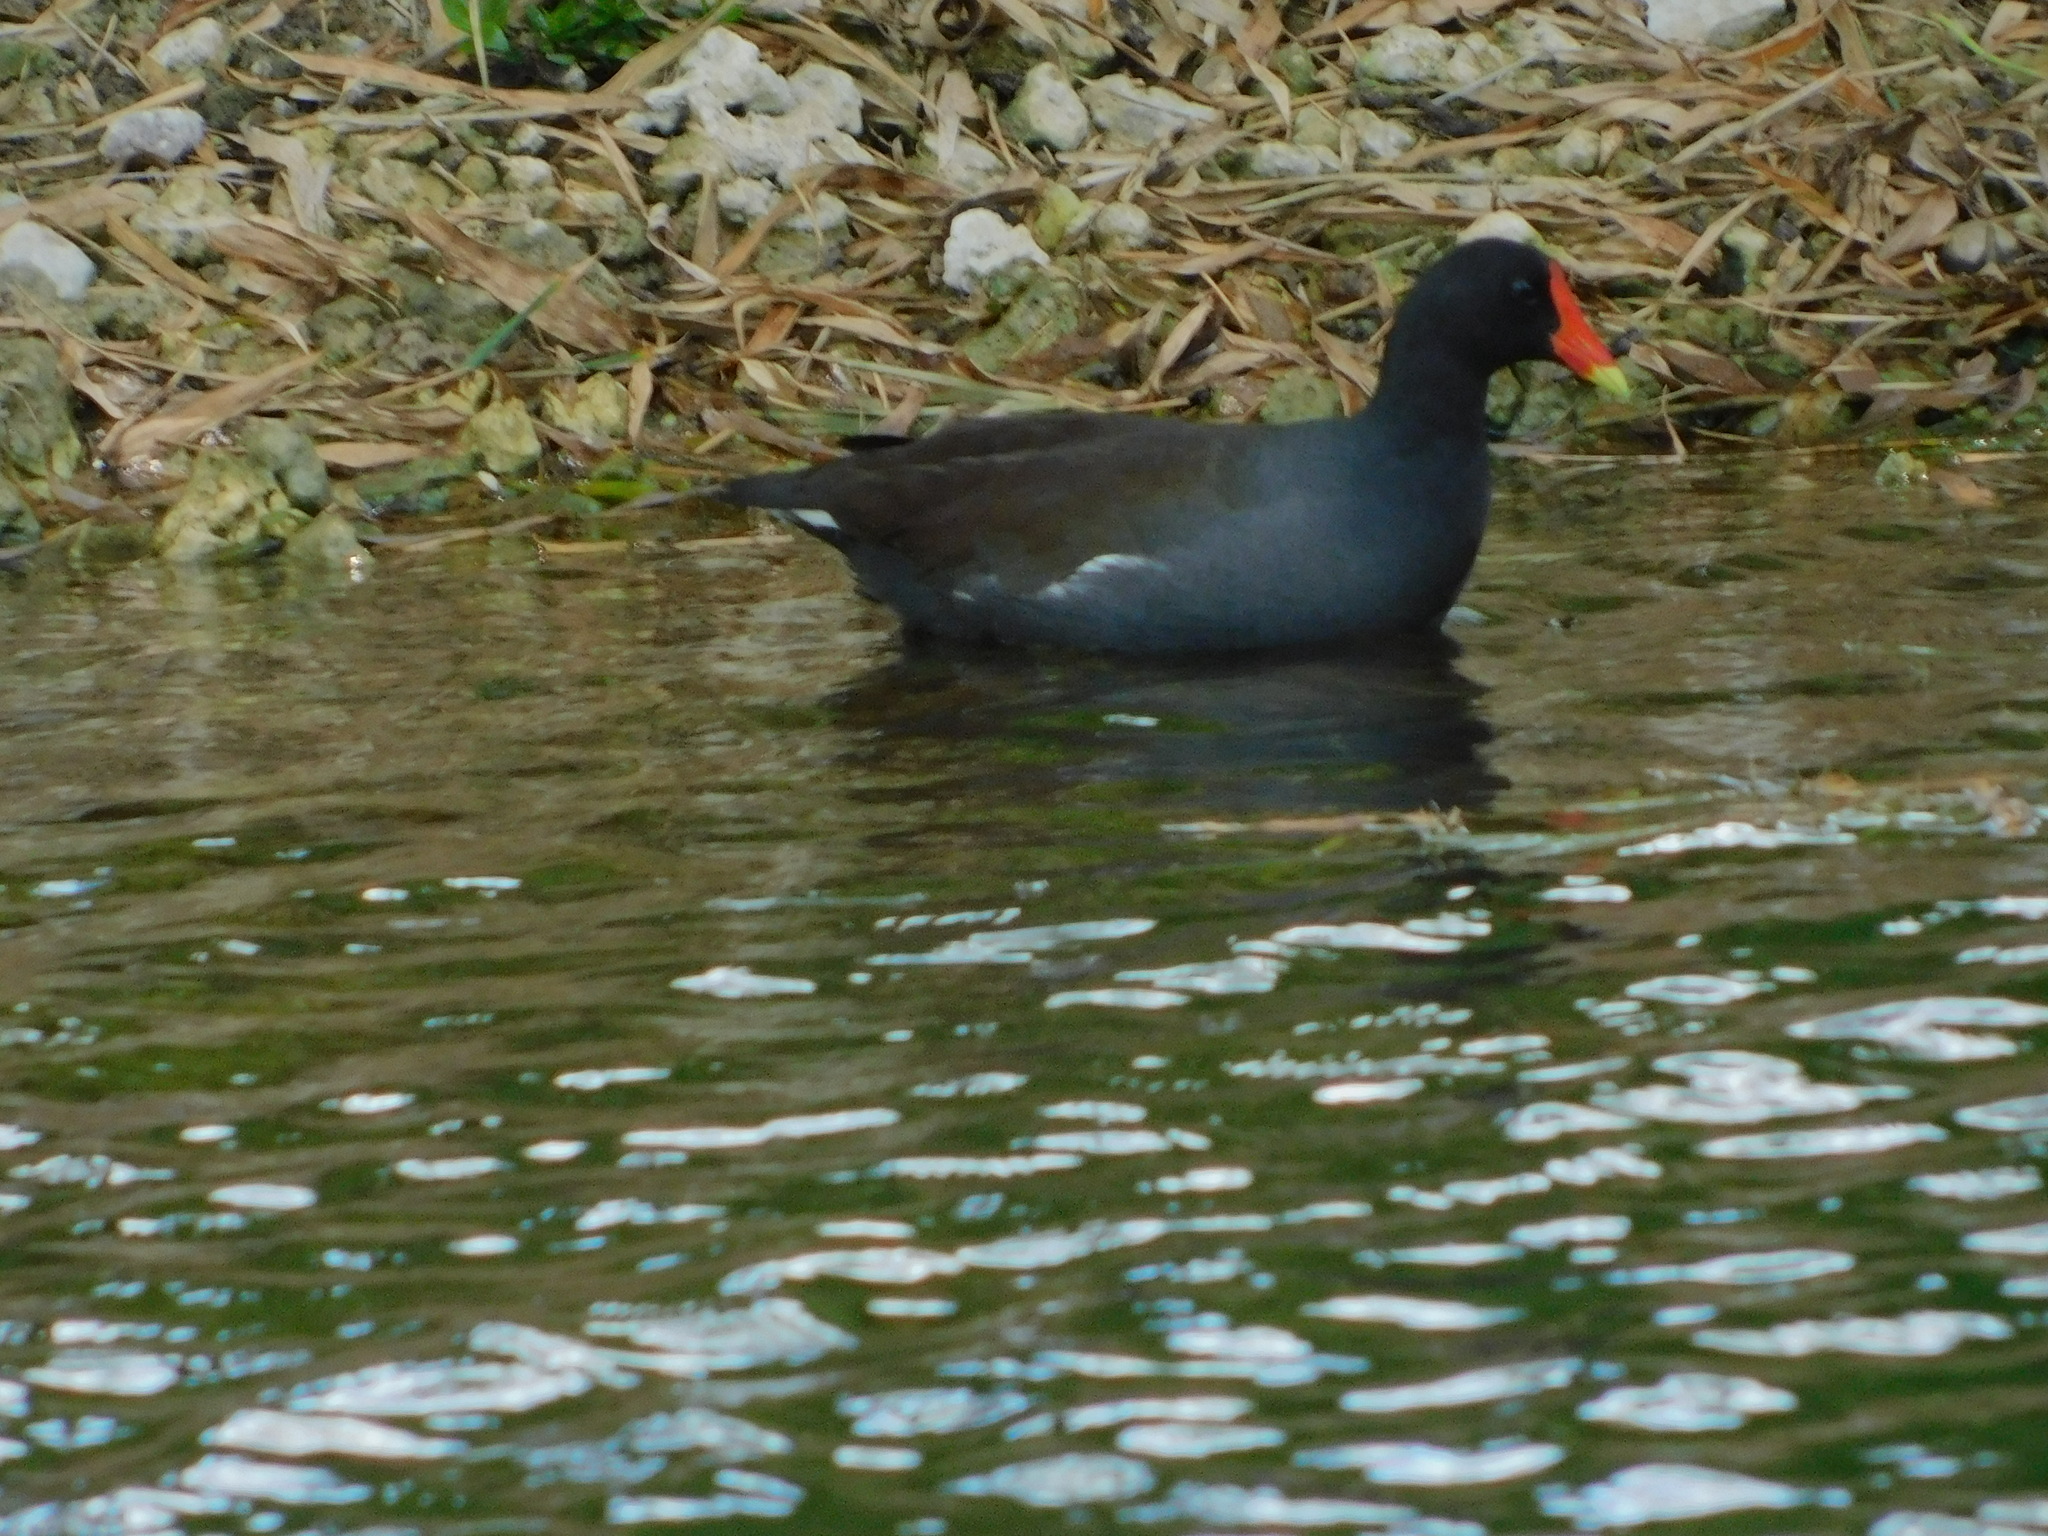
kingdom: Animalia
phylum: Chordata
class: Aves
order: Gruiformes
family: Rallidae
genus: Gallinula
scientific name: Gallinula chloropus
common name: Common moorhen
